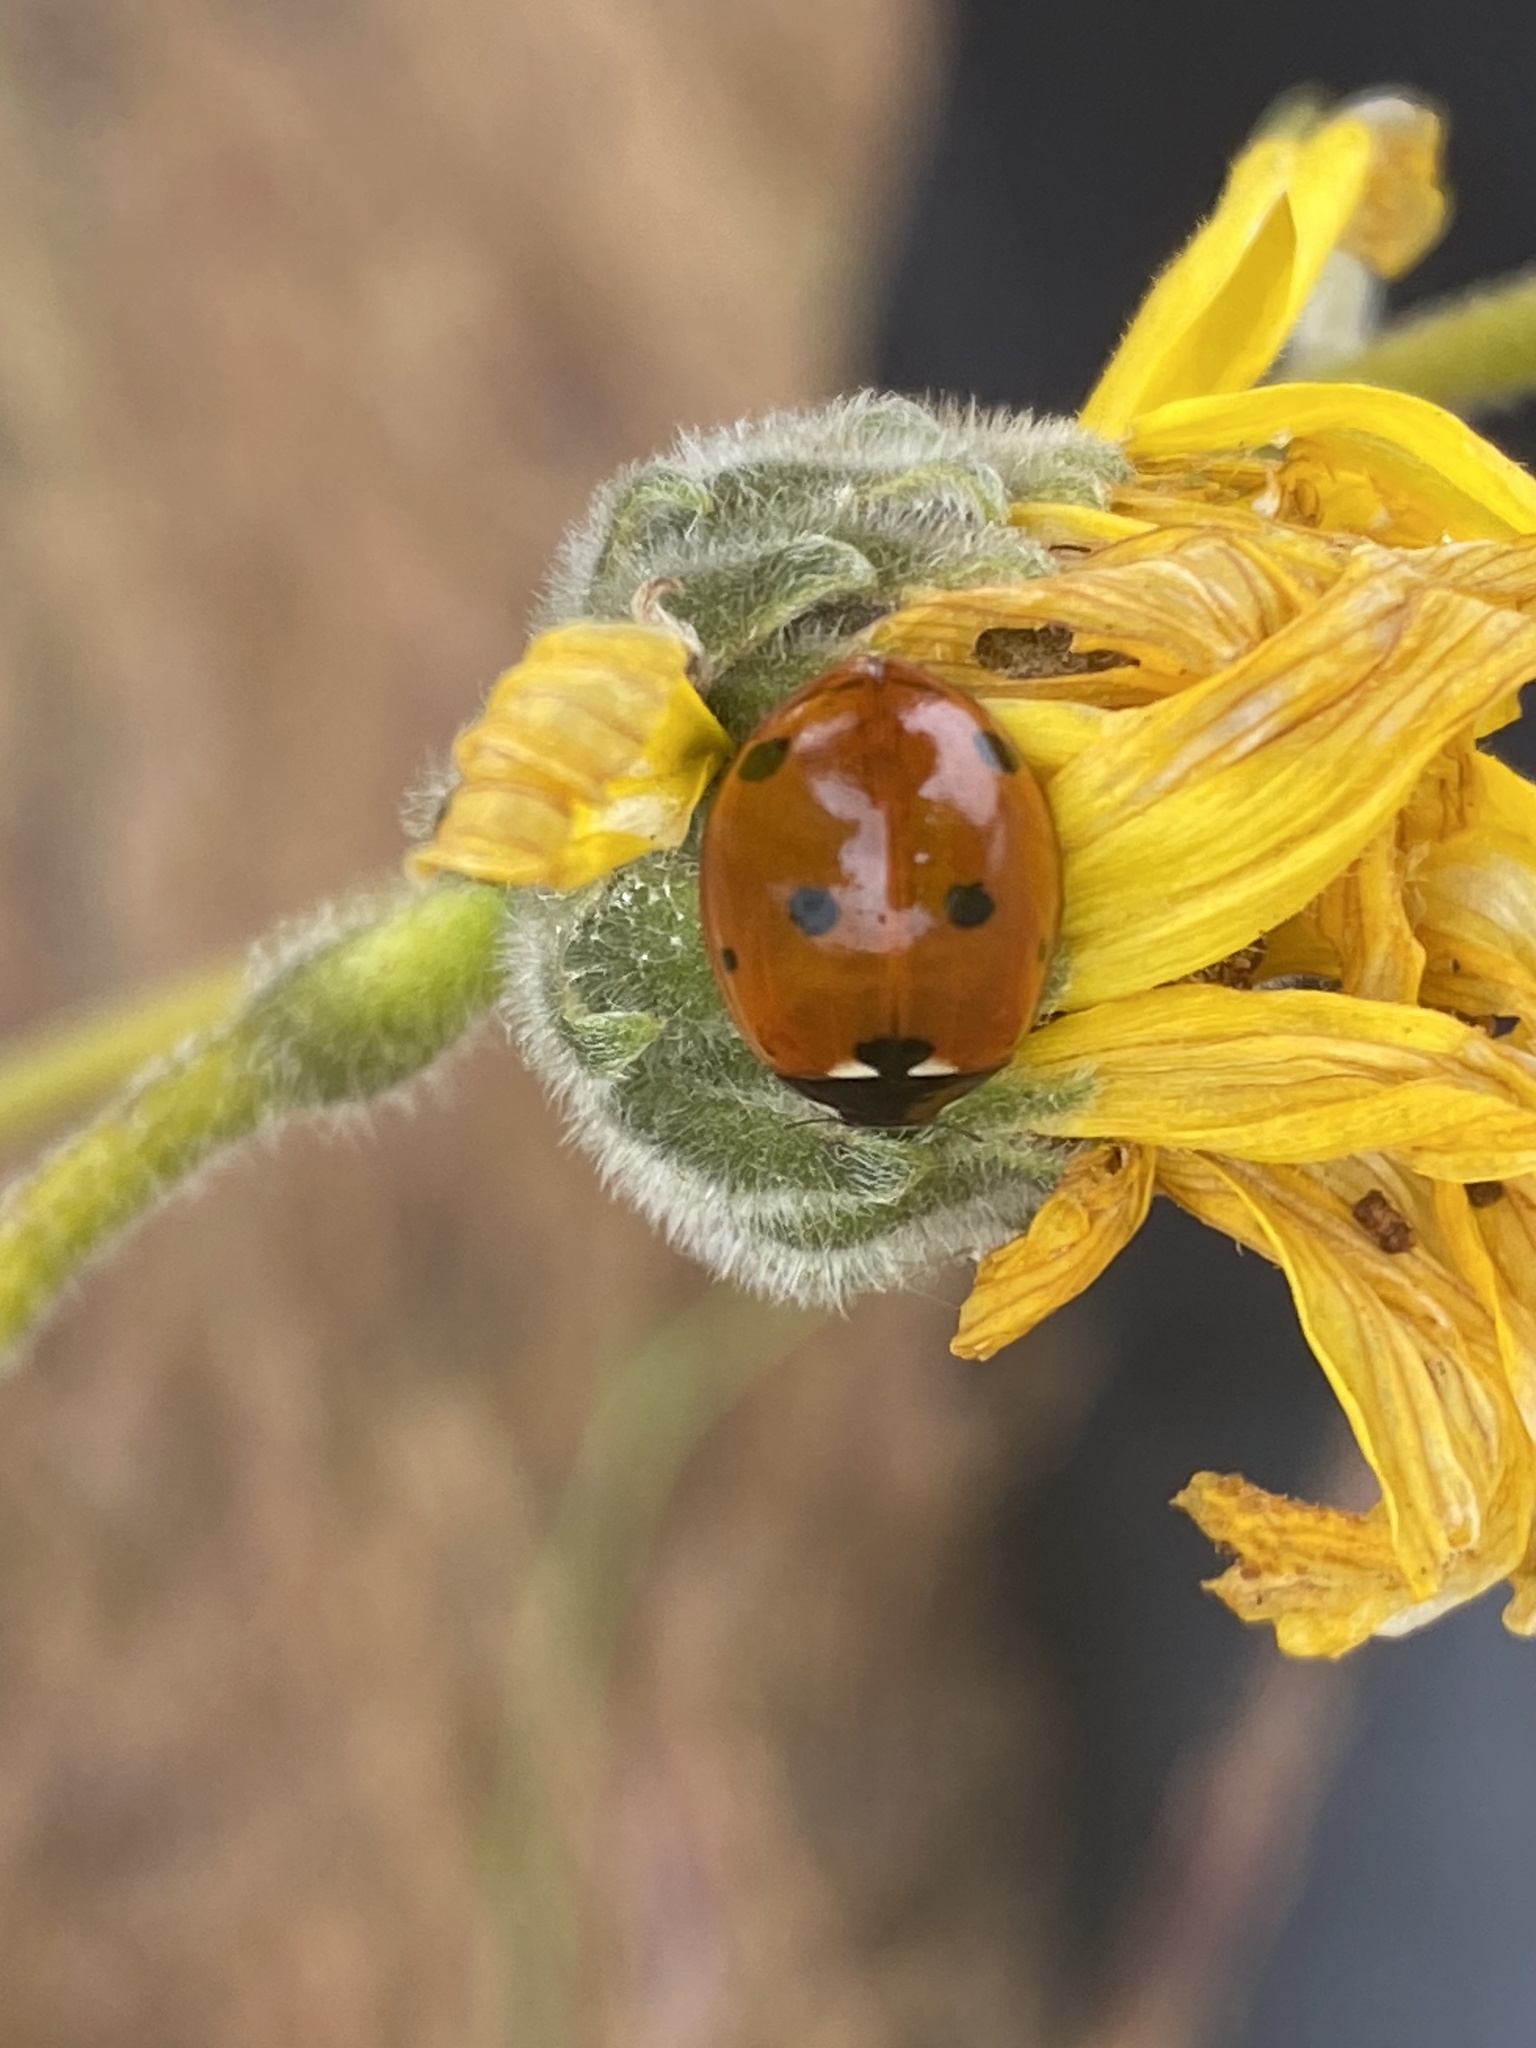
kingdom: Animalia
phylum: Arthropoda
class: Insecta
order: Coleoptera
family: Coccinellidae
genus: Coccinella
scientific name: Coccinella septempunctata
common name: Sevenspotted lady beetle
